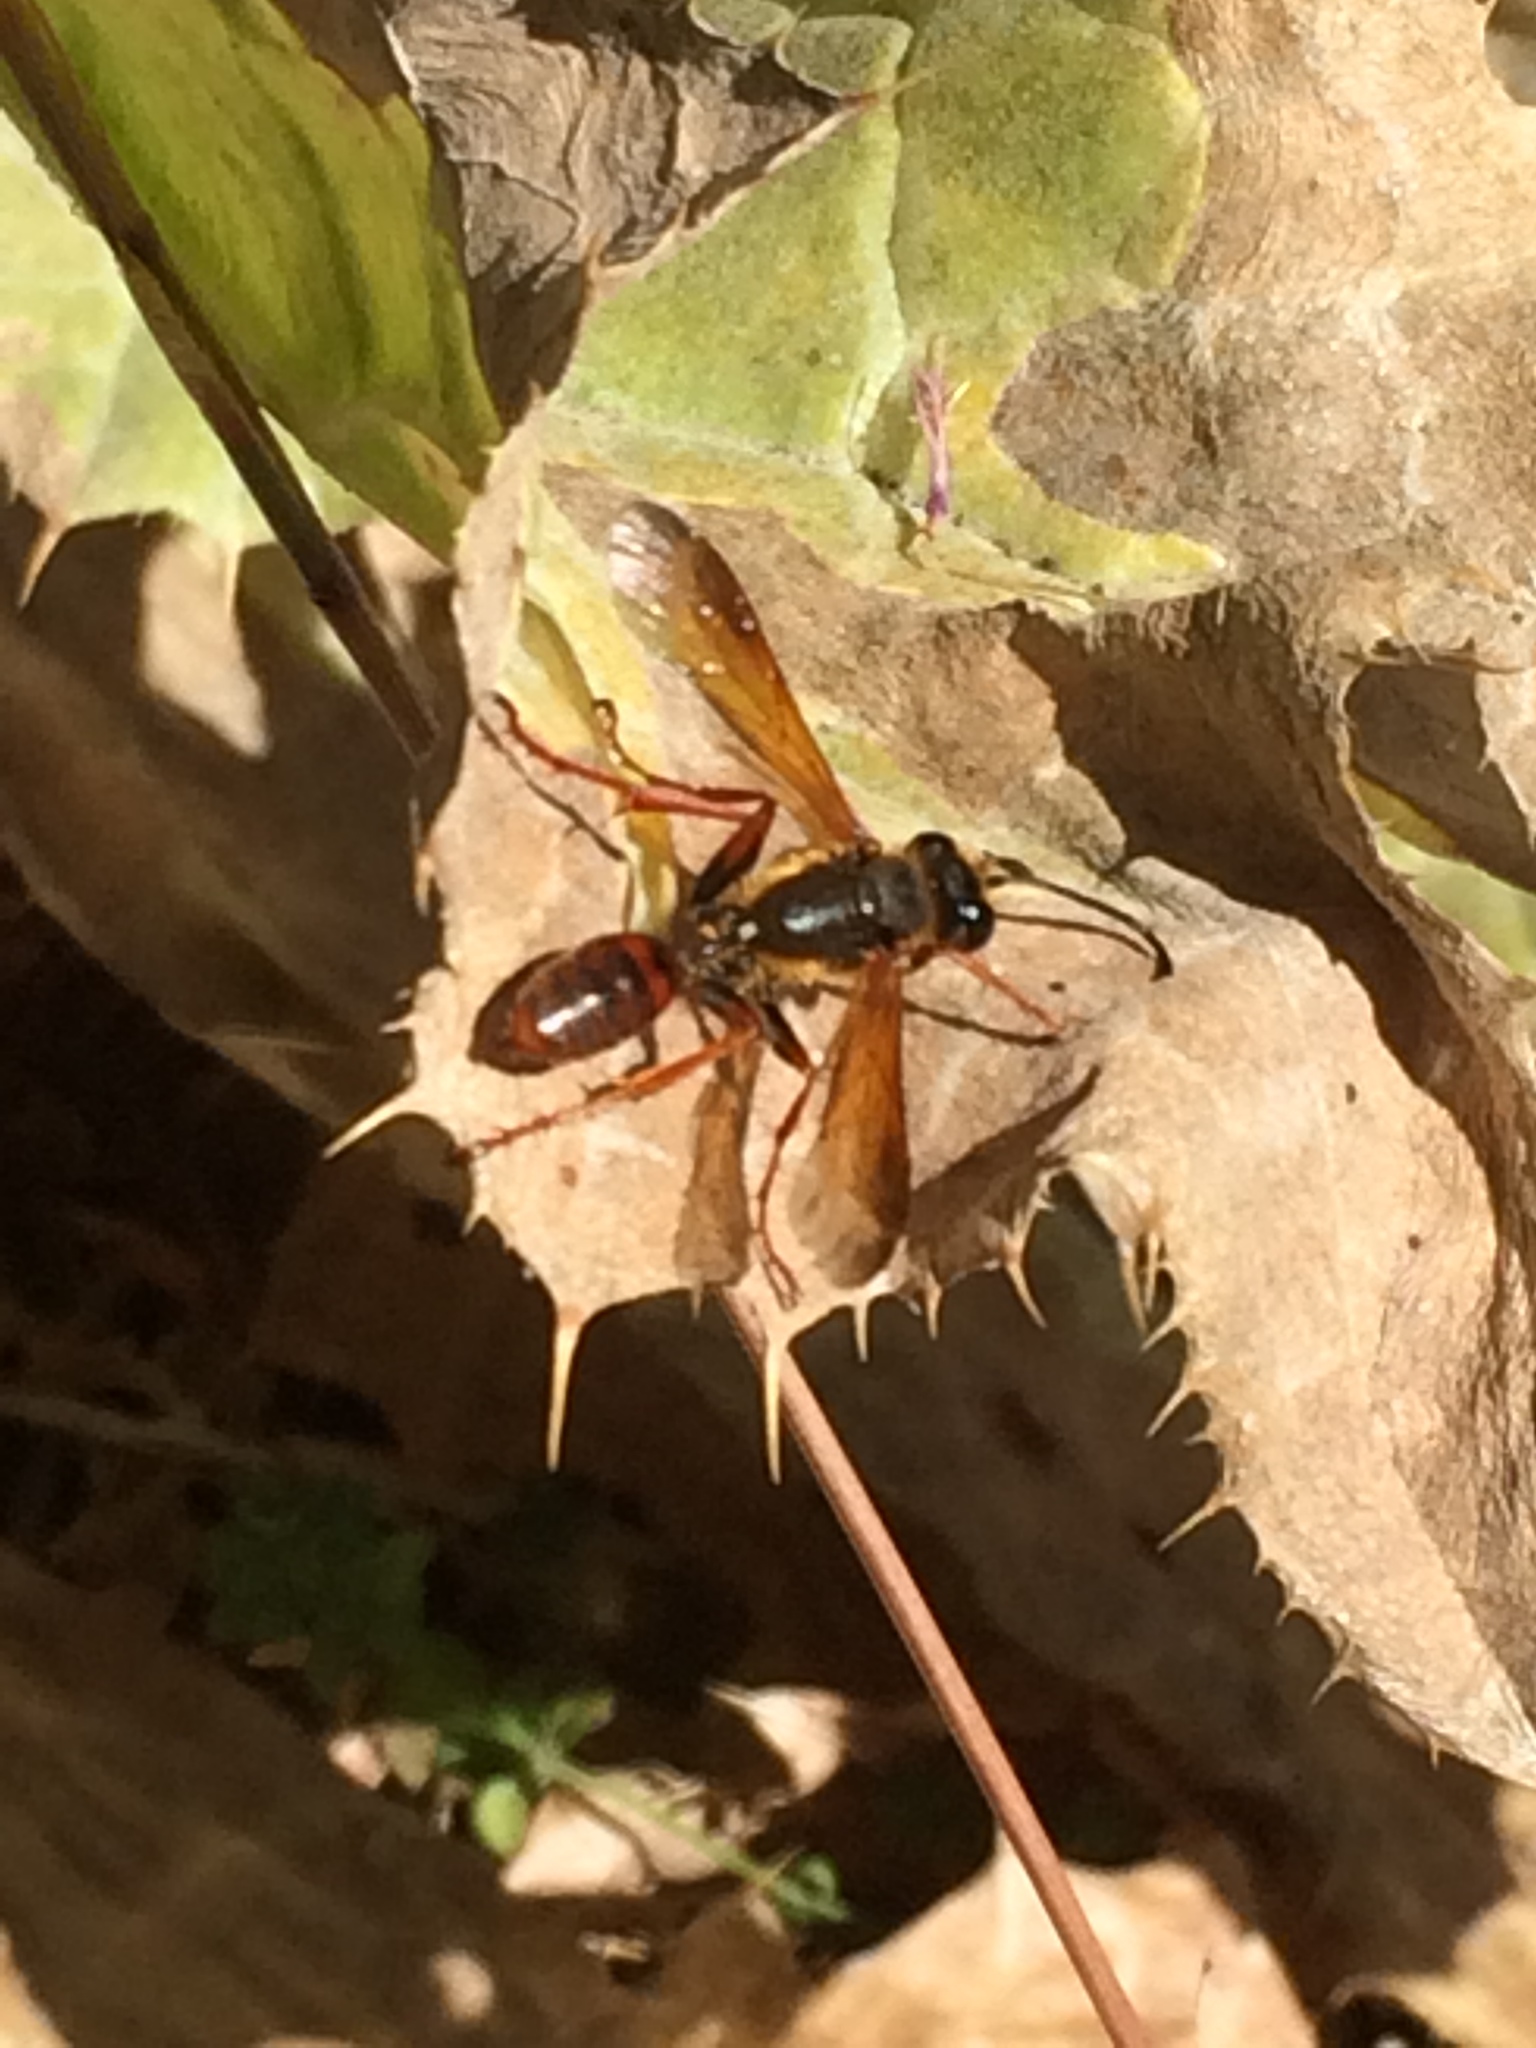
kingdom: Animalia
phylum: Arthropoda
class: Insecta
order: Hymenoptera
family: Sphecidae
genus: Isodontia
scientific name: Isodontia elegans
